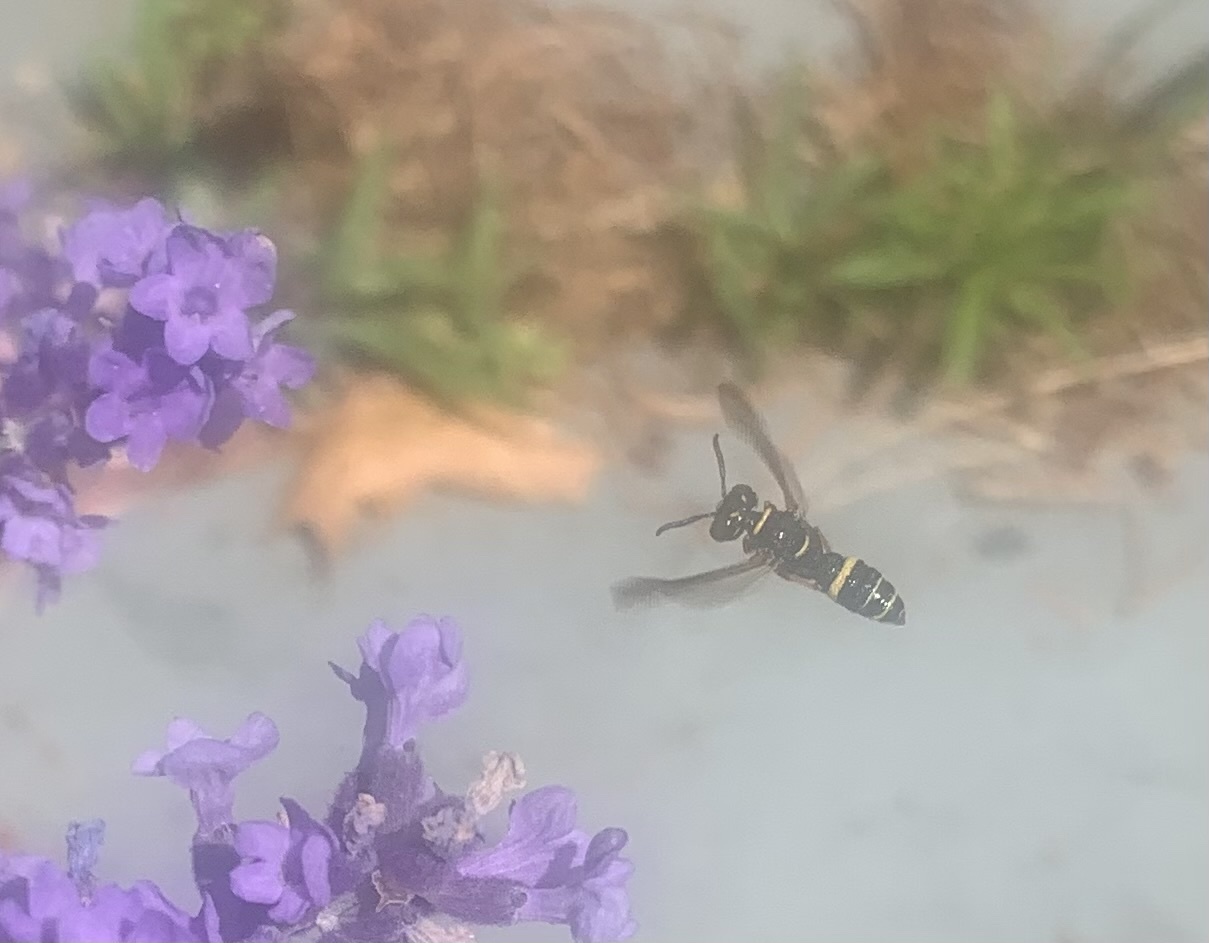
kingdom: Animalia
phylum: Arthropoda
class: Insecta
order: Hymenoptera
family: Crabronidae
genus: Philanthus
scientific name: Philanthus gibbosus
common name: Humped beewolf
